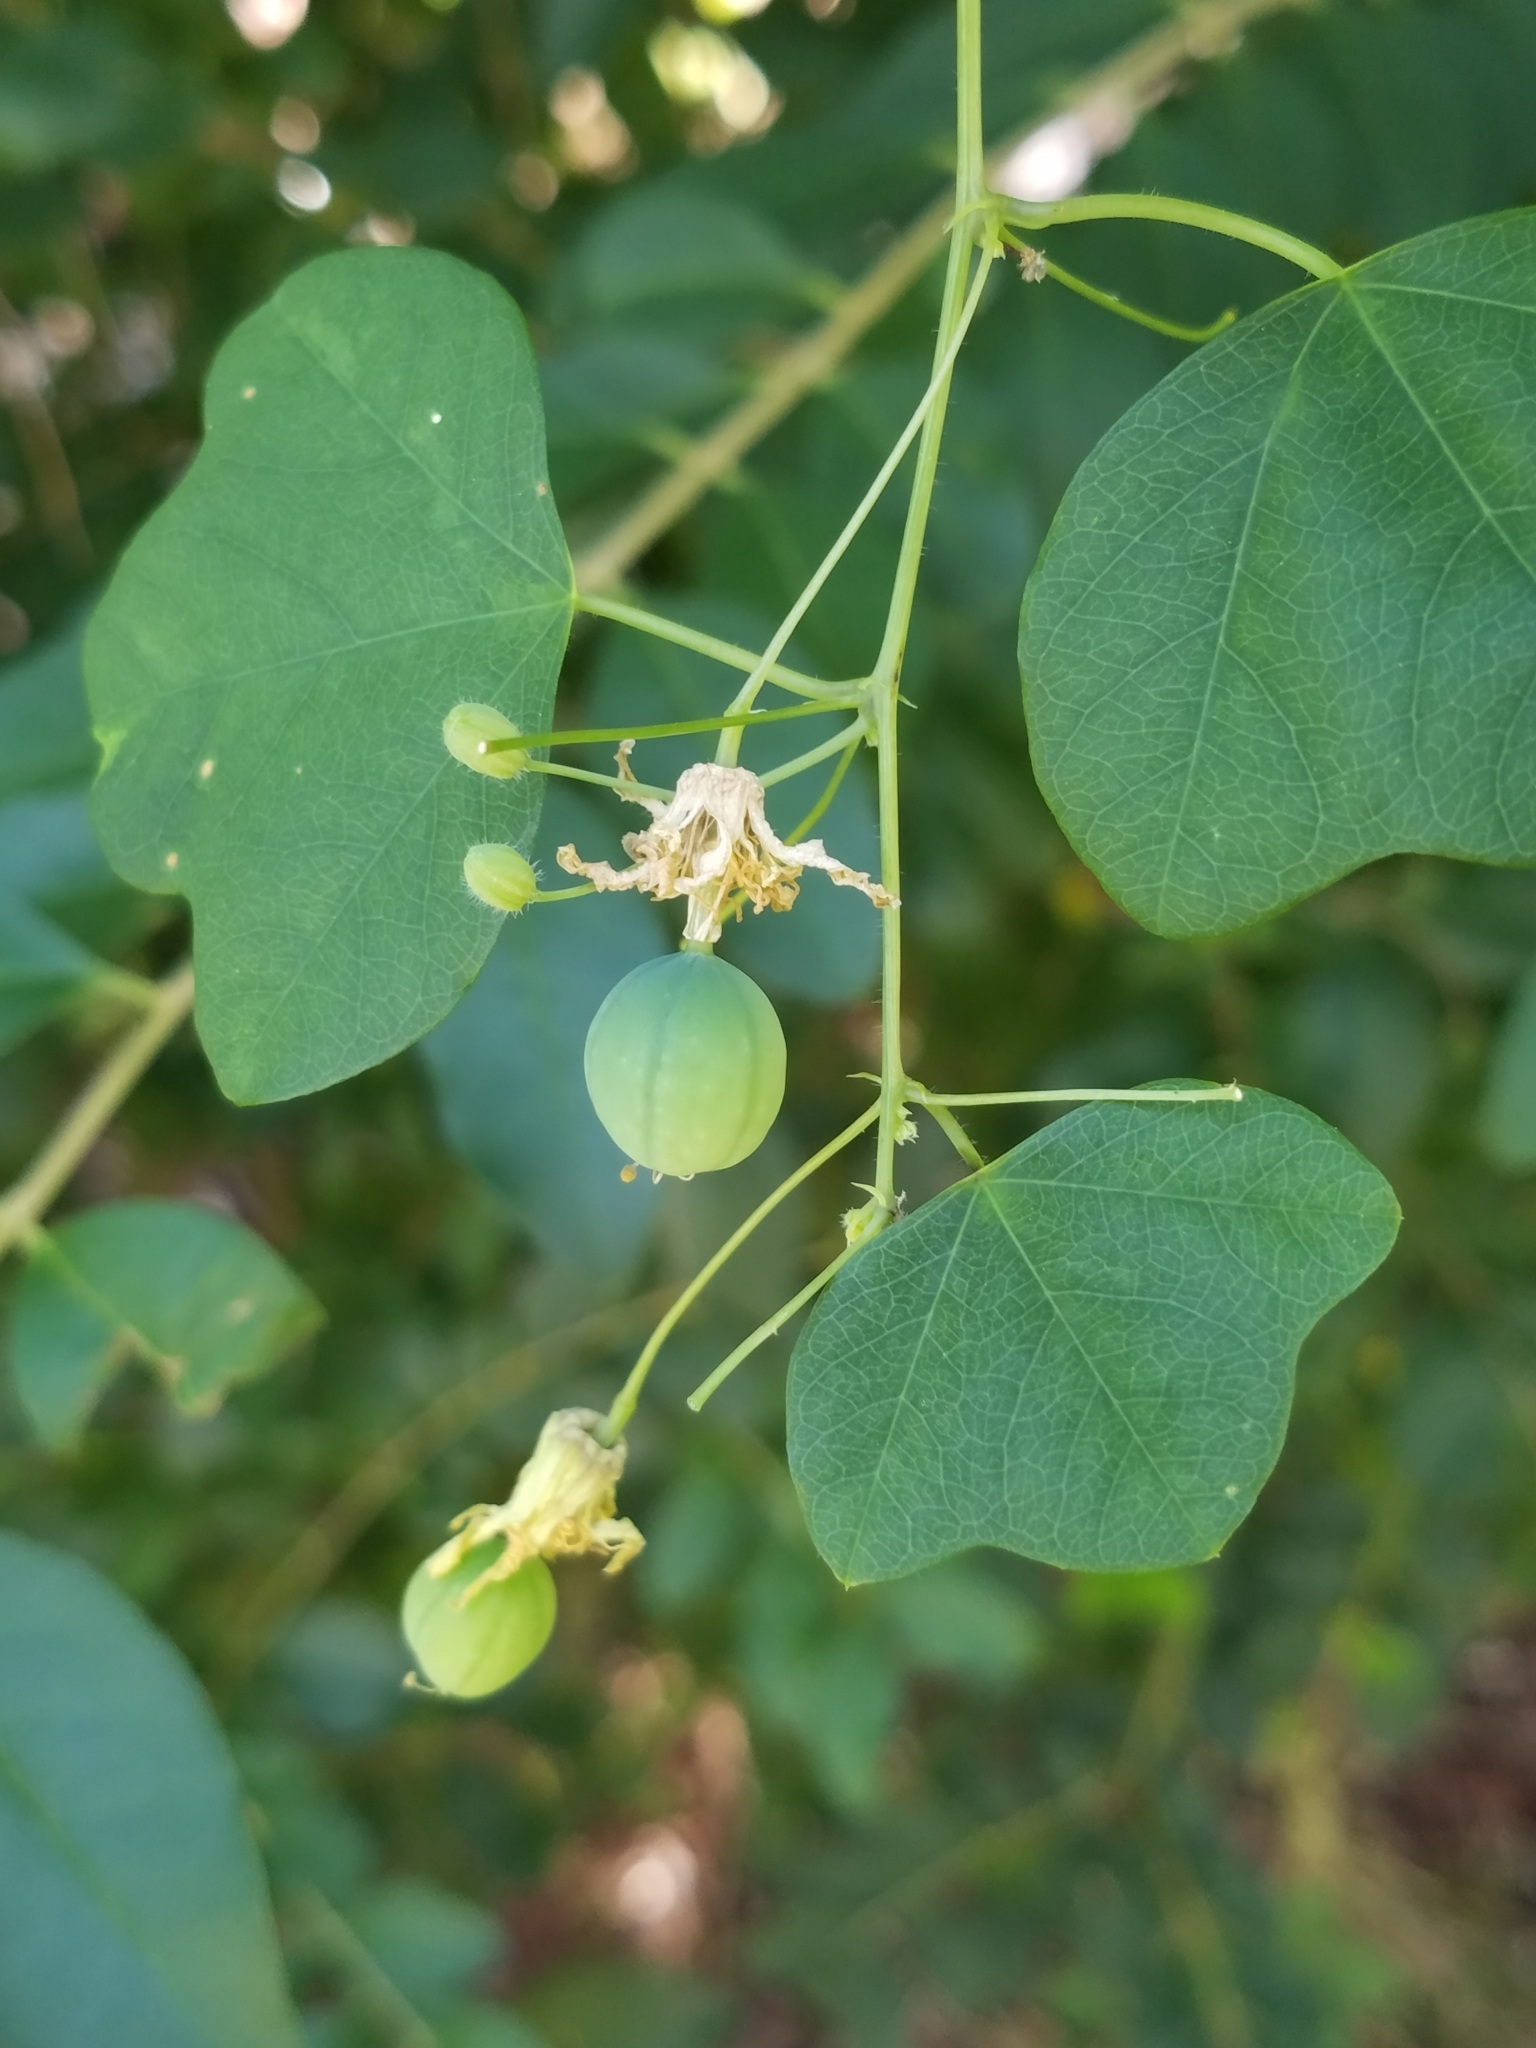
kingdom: Plantae
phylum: Tracheophyta
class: Magnoliopsida
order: Malpighiales
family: Passifloraceae
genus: Passiflora
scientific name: Passiflora lutea
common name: Yellow passionflower
